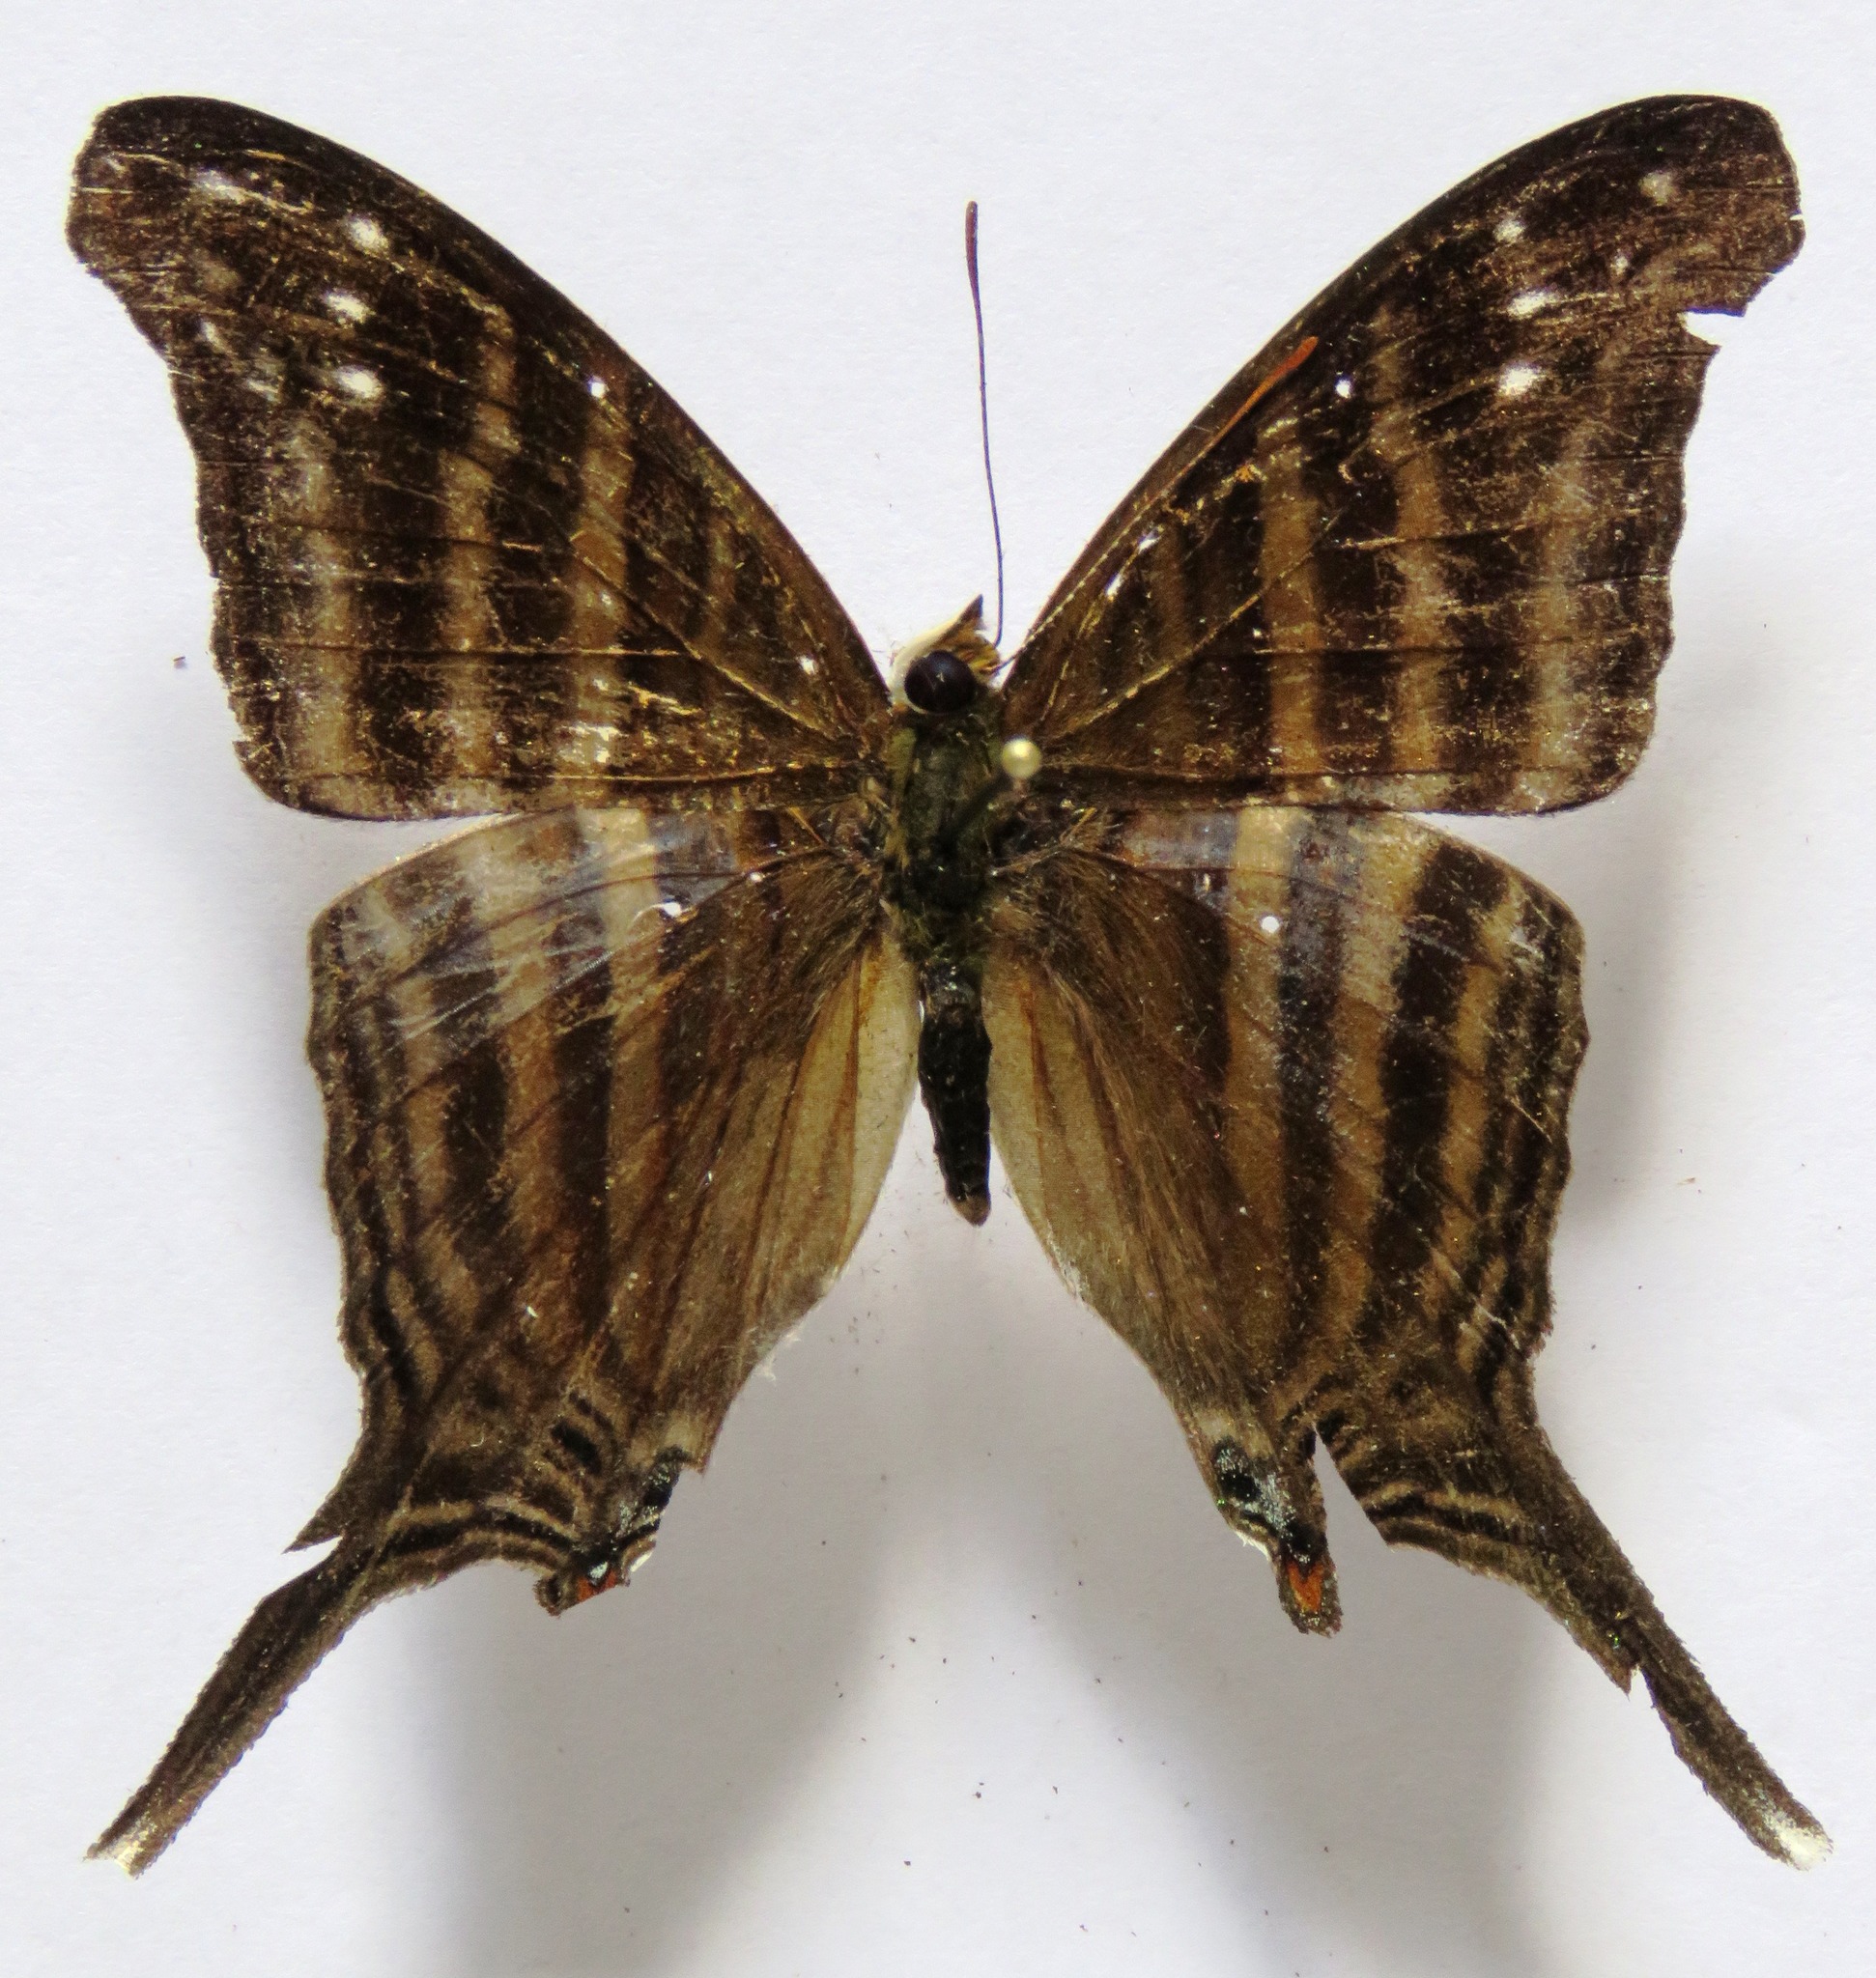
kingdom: Animalia
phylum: Arthropoda
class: Insecta
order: Lepidoptera
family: Nymphalidae
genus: Marpesia
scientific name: Marpesia chiron
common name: Many-banded daggerwing
